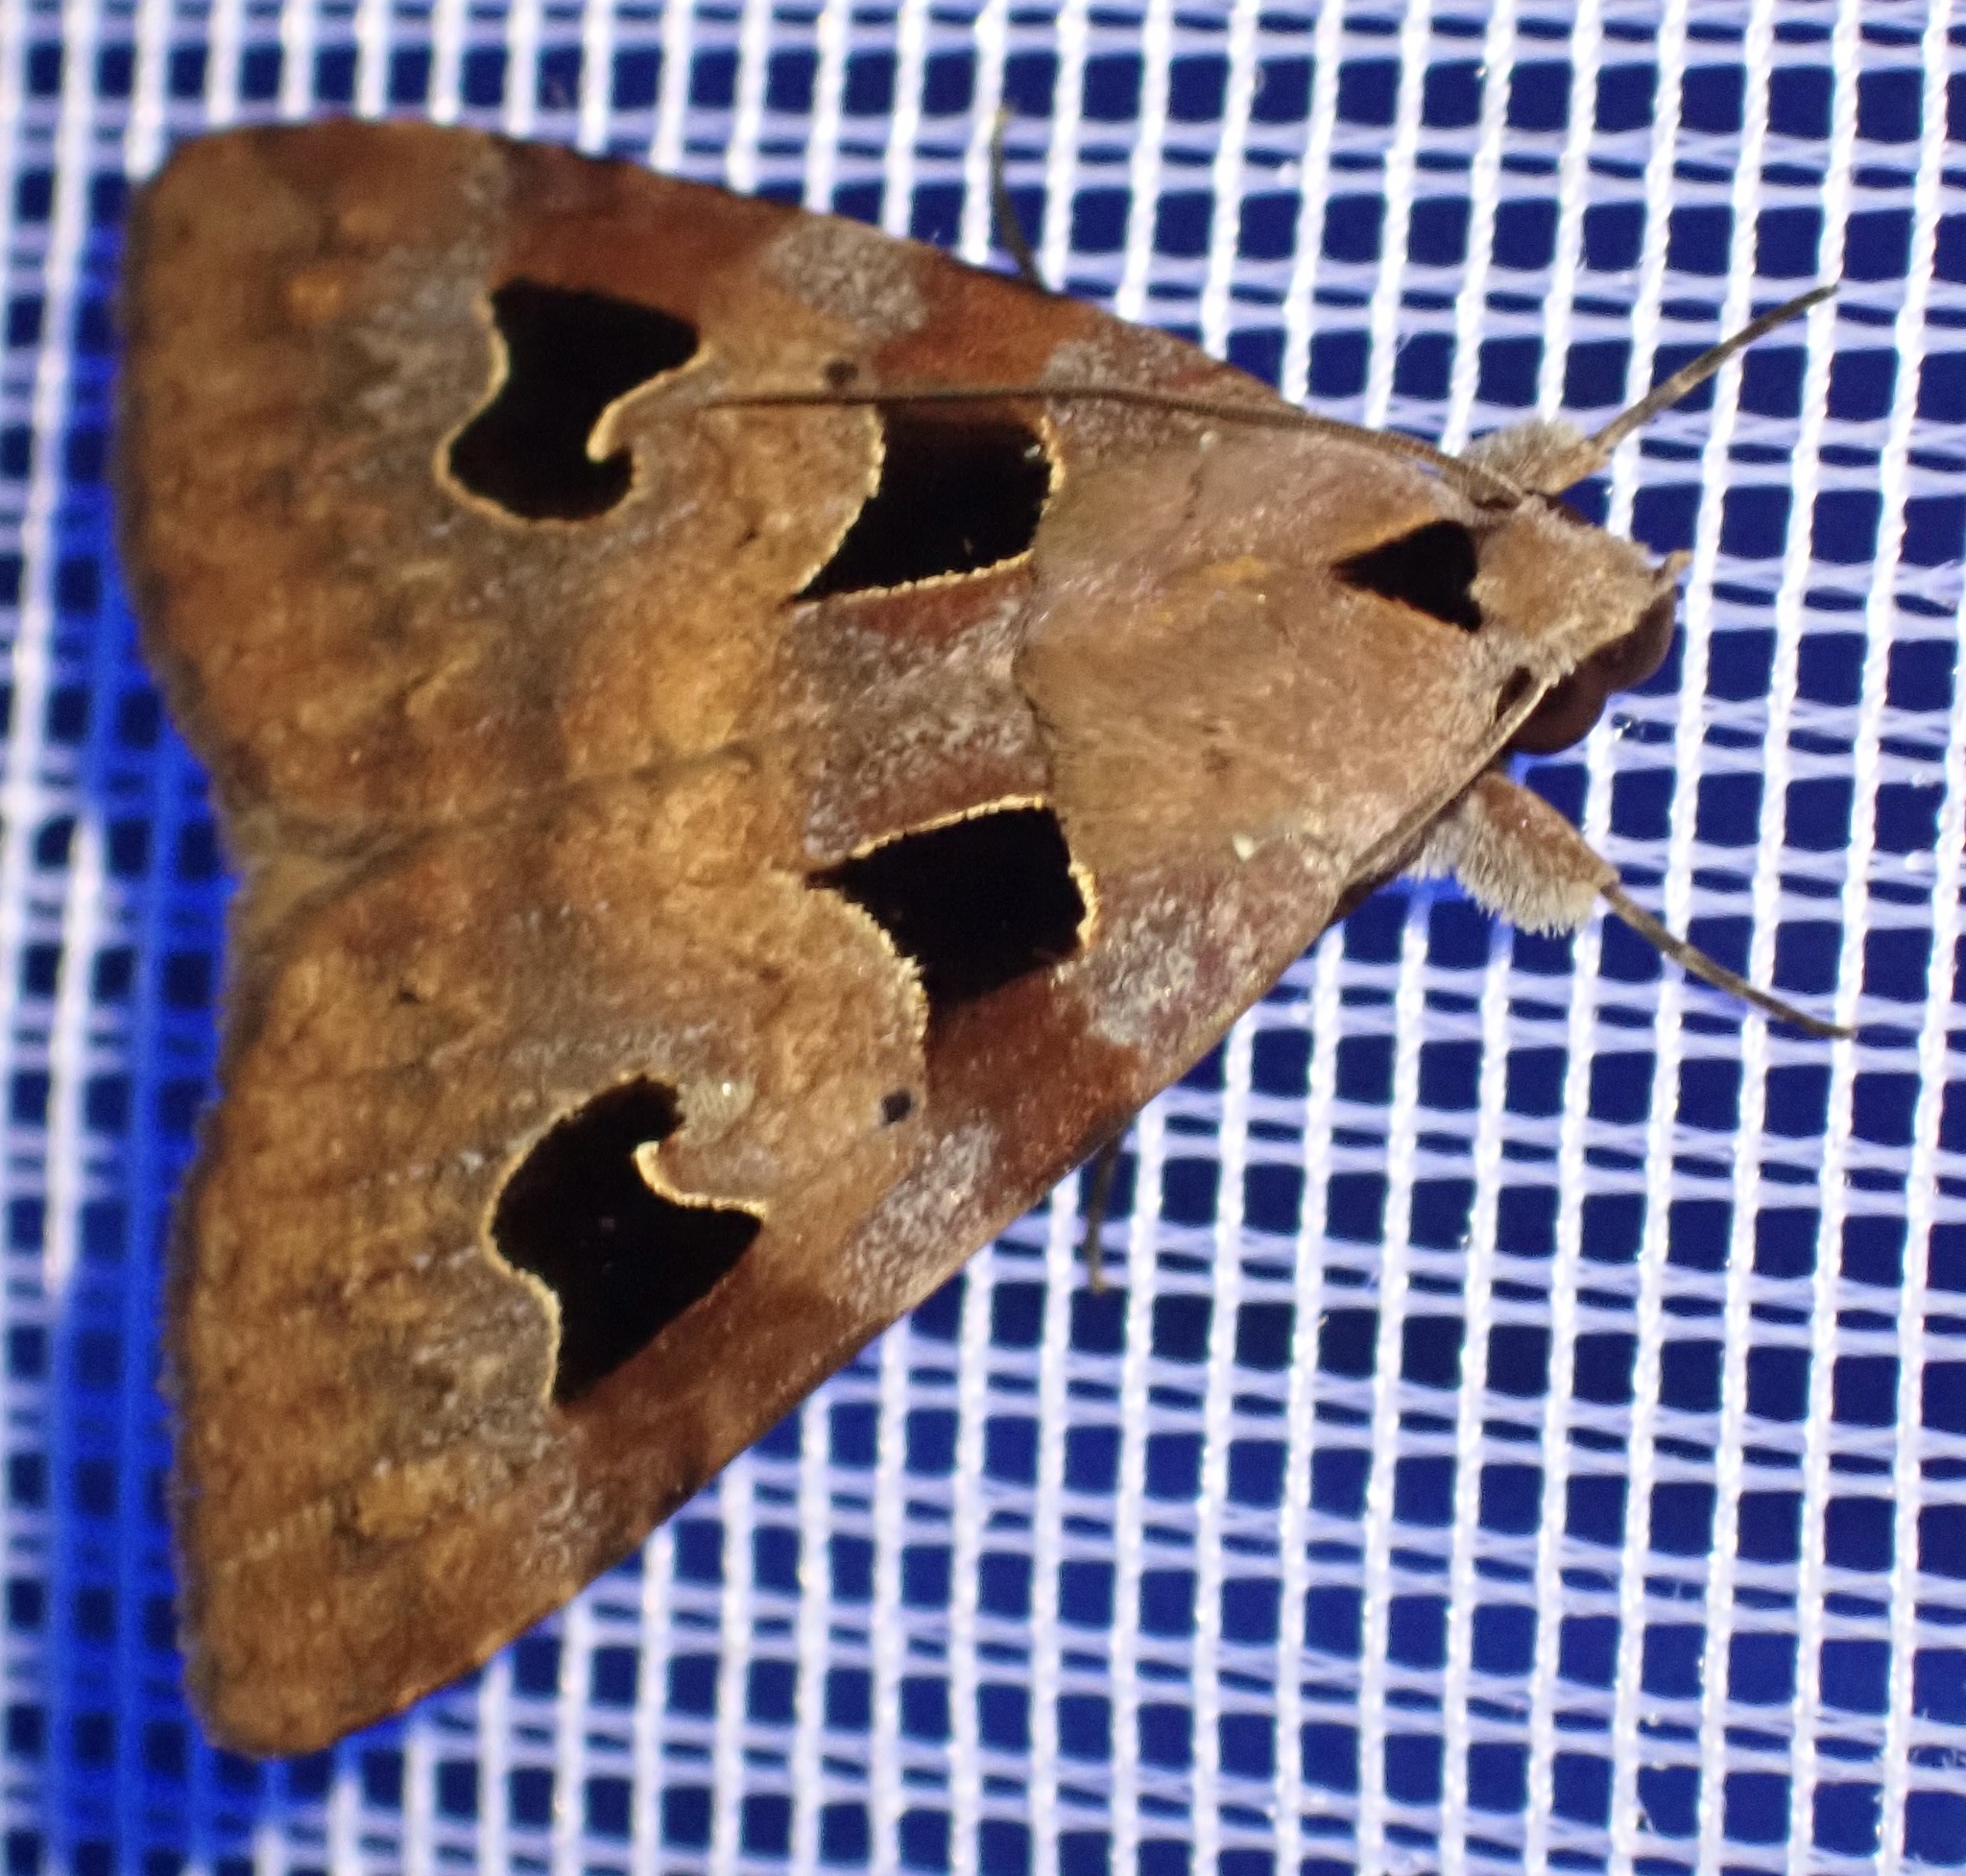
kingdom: Animalia
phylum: Arthropoda
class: Insecta
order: Lepidoptera
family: Erebidae
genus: Avatha
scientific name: Avatha novoguineana
